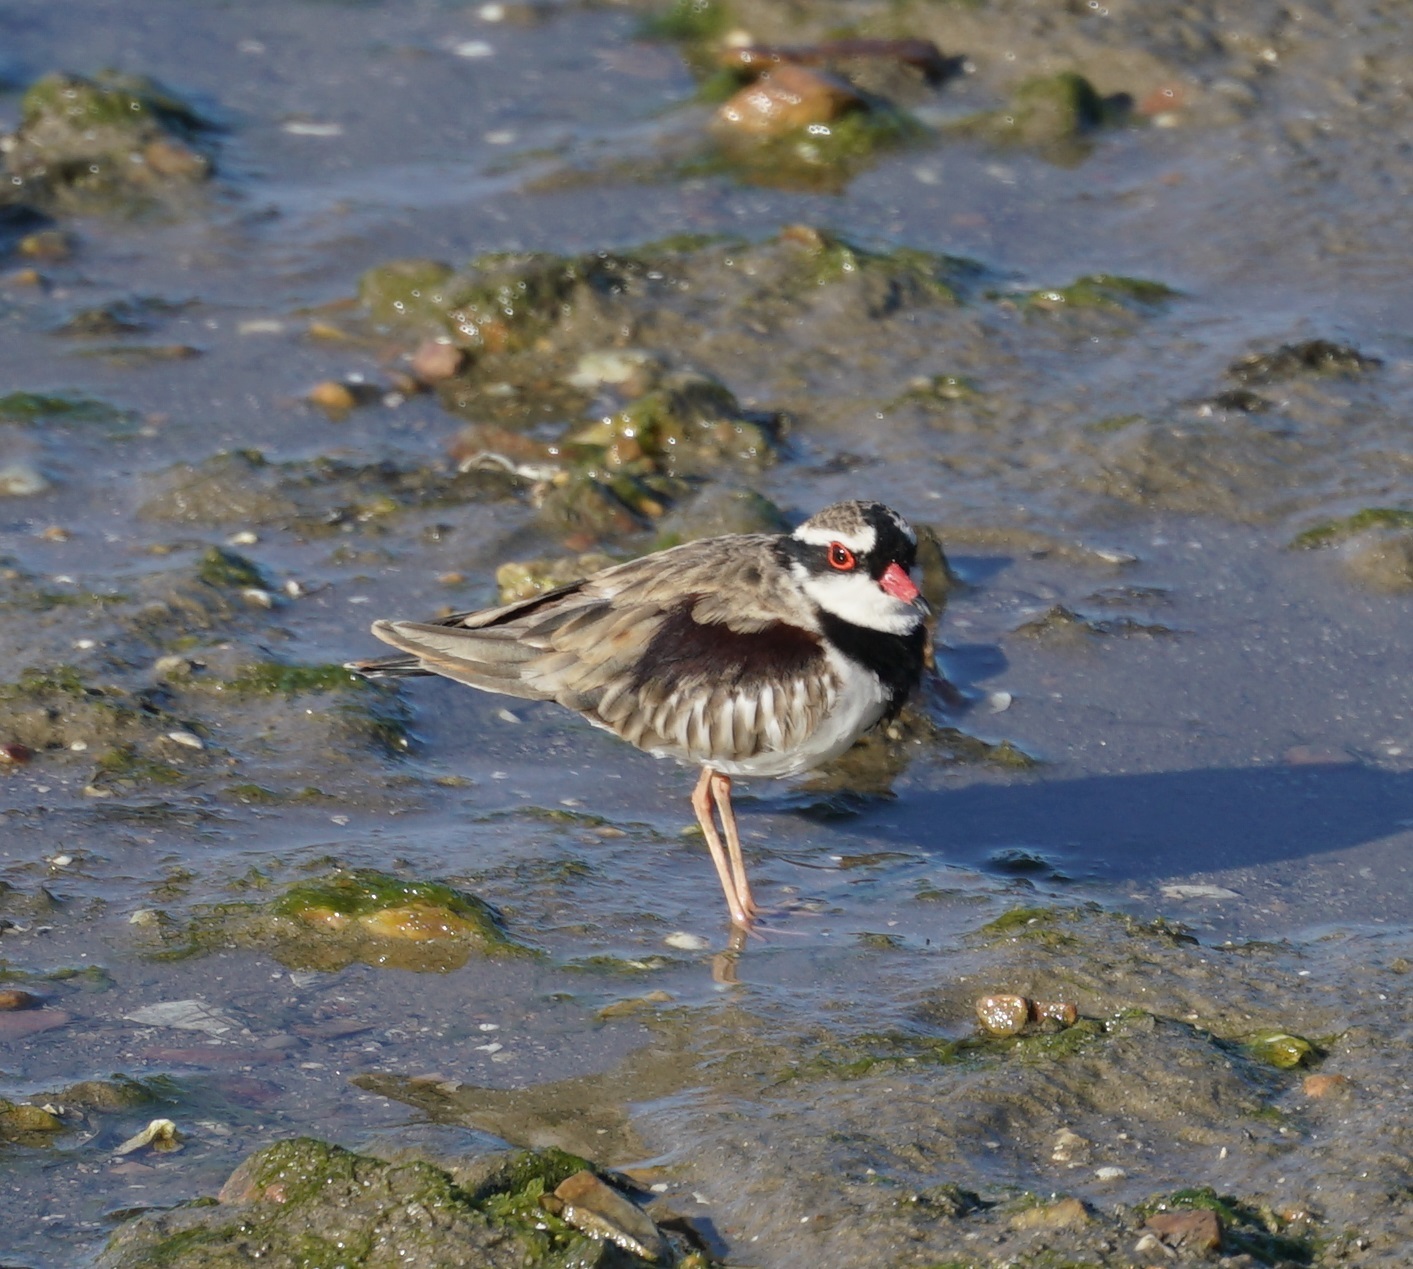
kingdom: Animalia
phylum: Chordata
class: Aves
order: Charadriiformes
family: Charadriidae
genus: Elseyornis
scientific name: Elseyornis melanops
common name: Black-fronted dotterel
